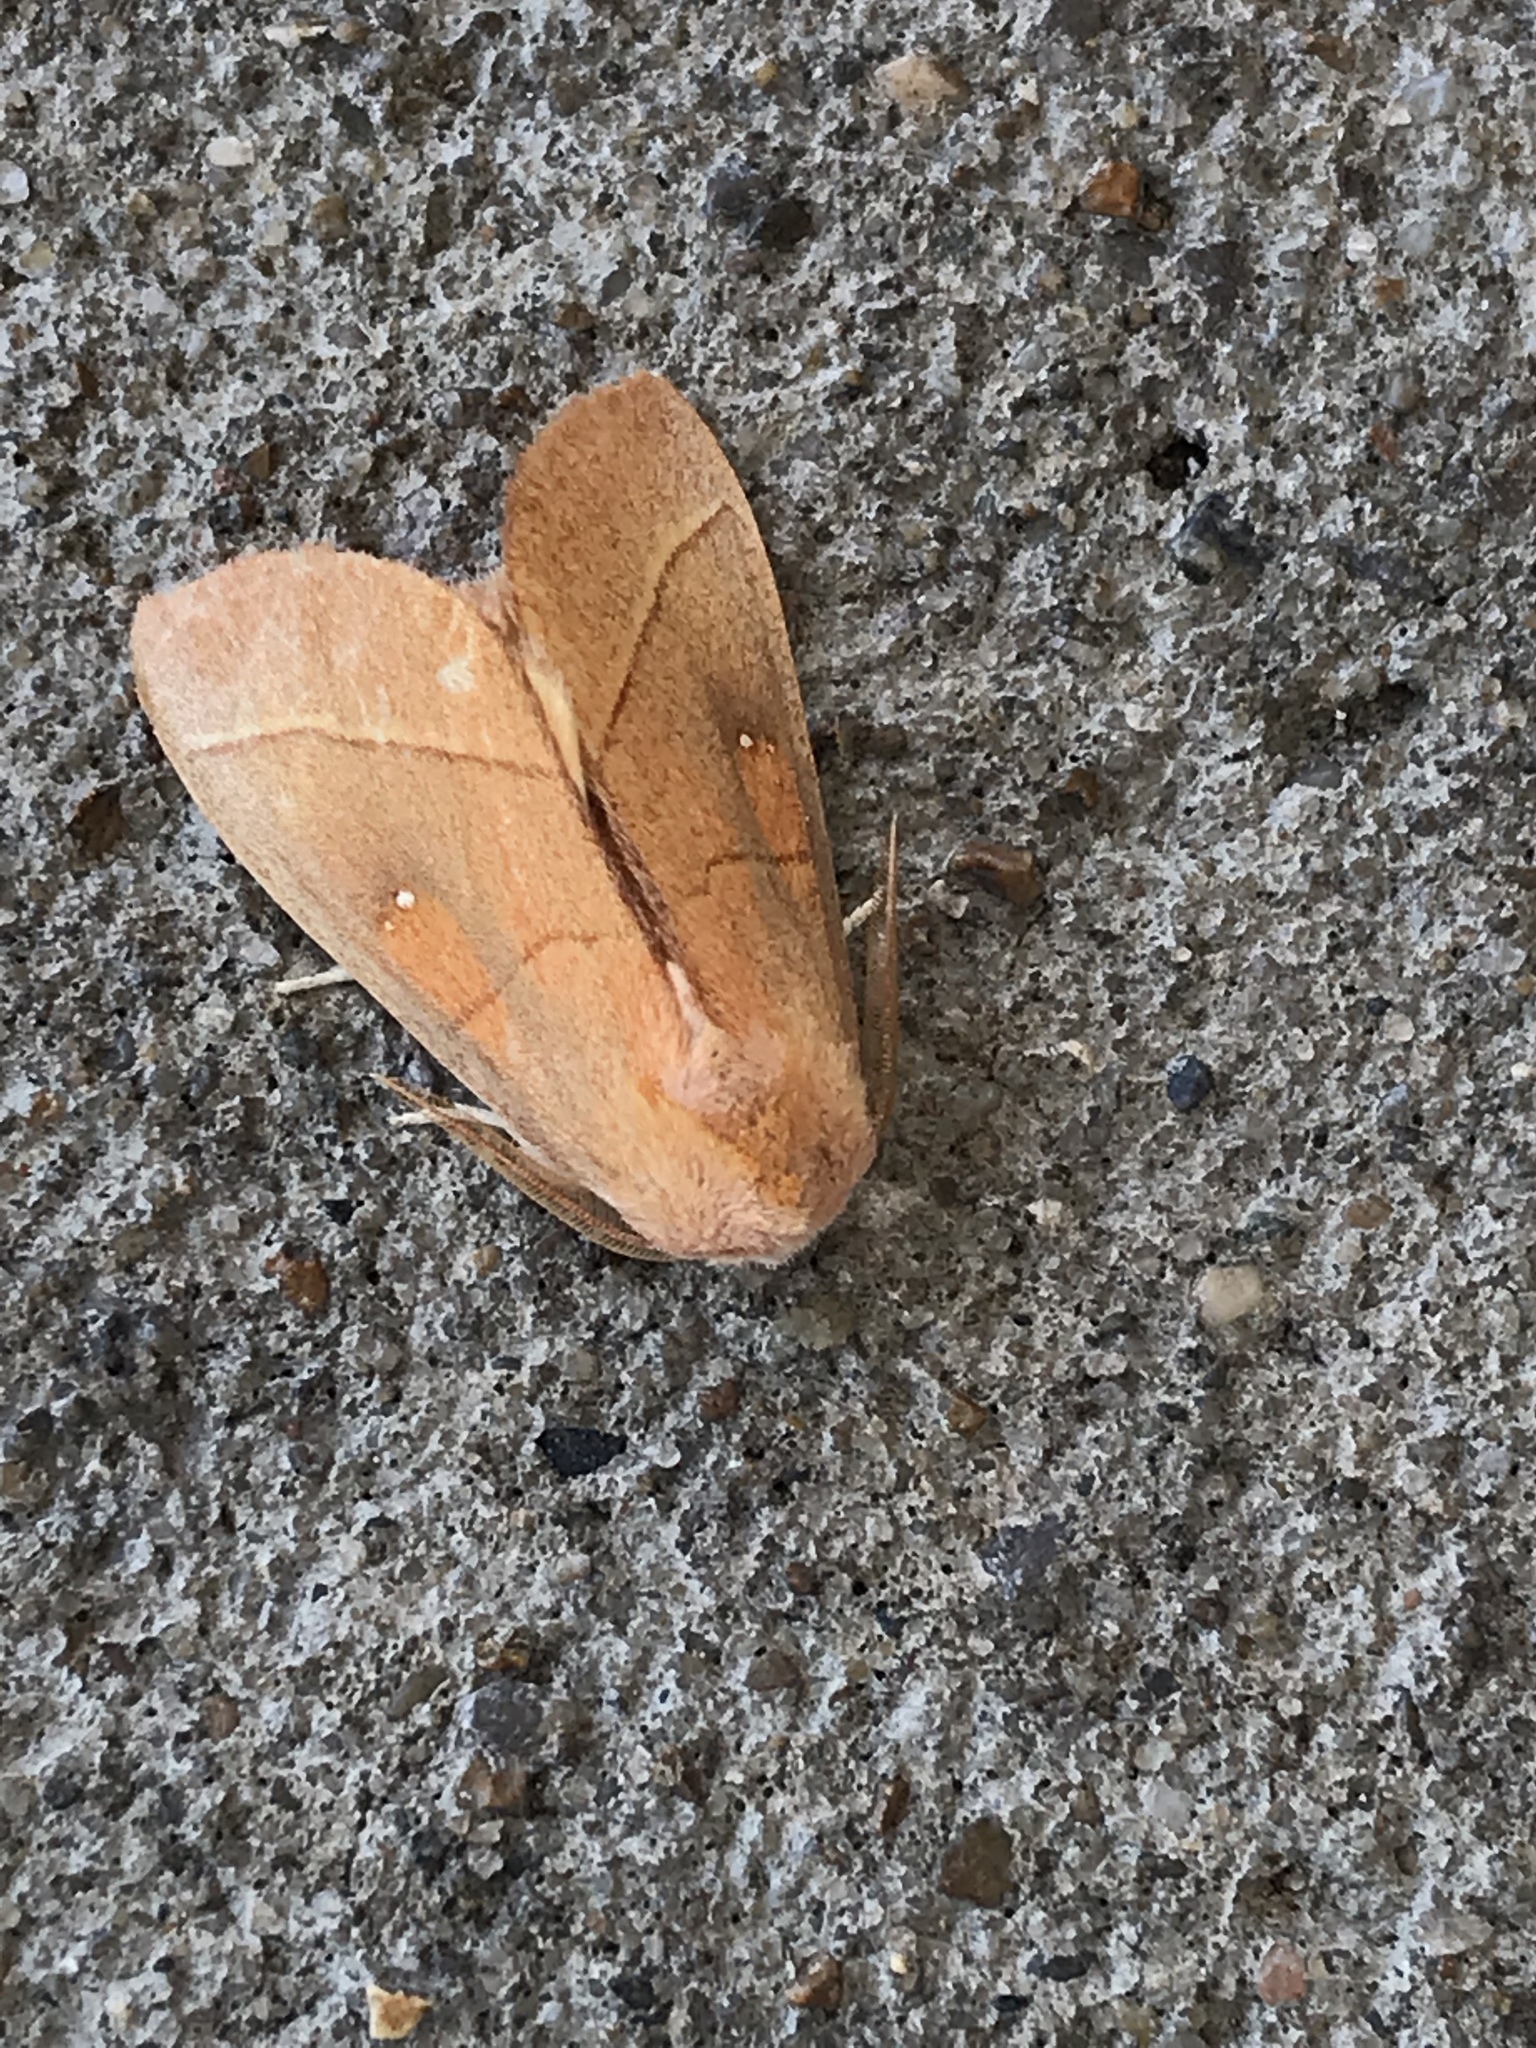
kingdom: Animalia
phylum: Arthropoda
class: Insecta
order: Lepidoptera
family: Notodontidae
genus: Nadata
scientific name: Nadata gibbosa
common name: White-dotted prominent
